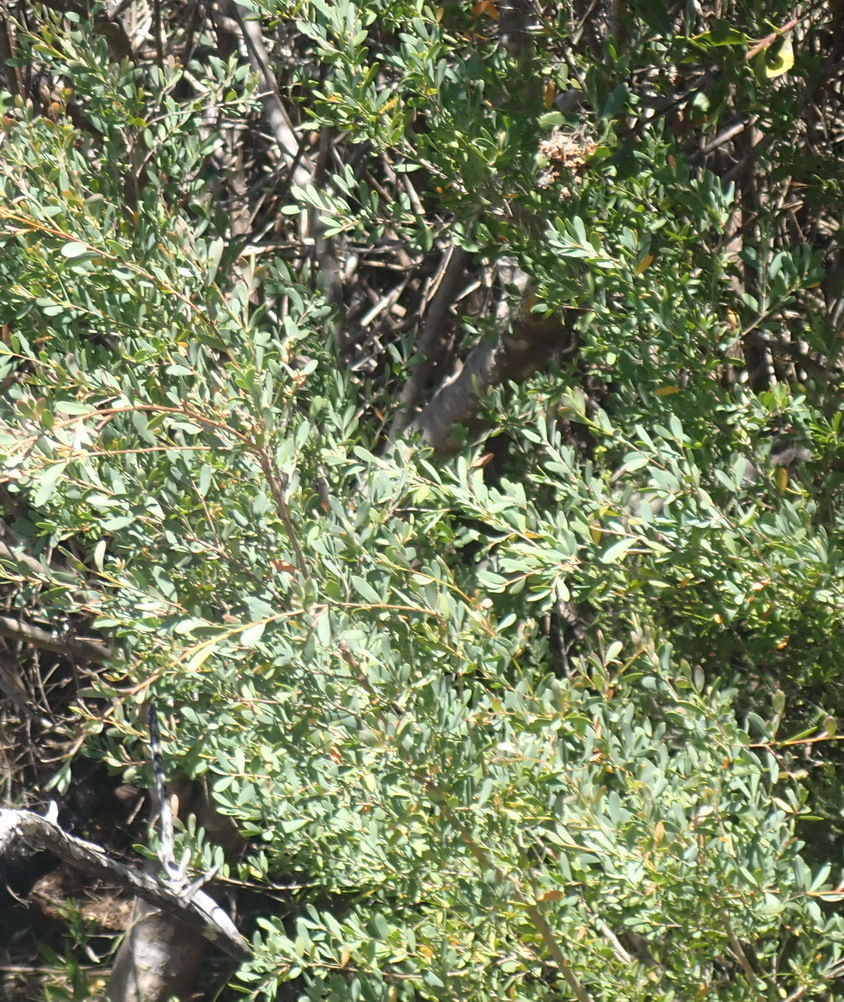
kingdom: Plantae
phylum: Tracheophyta
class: Magnoliopsida
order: Myrtales
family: Myrtaceae
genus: Leptospermum
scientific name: Leptospermum laevigatum
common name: Australian teatree
